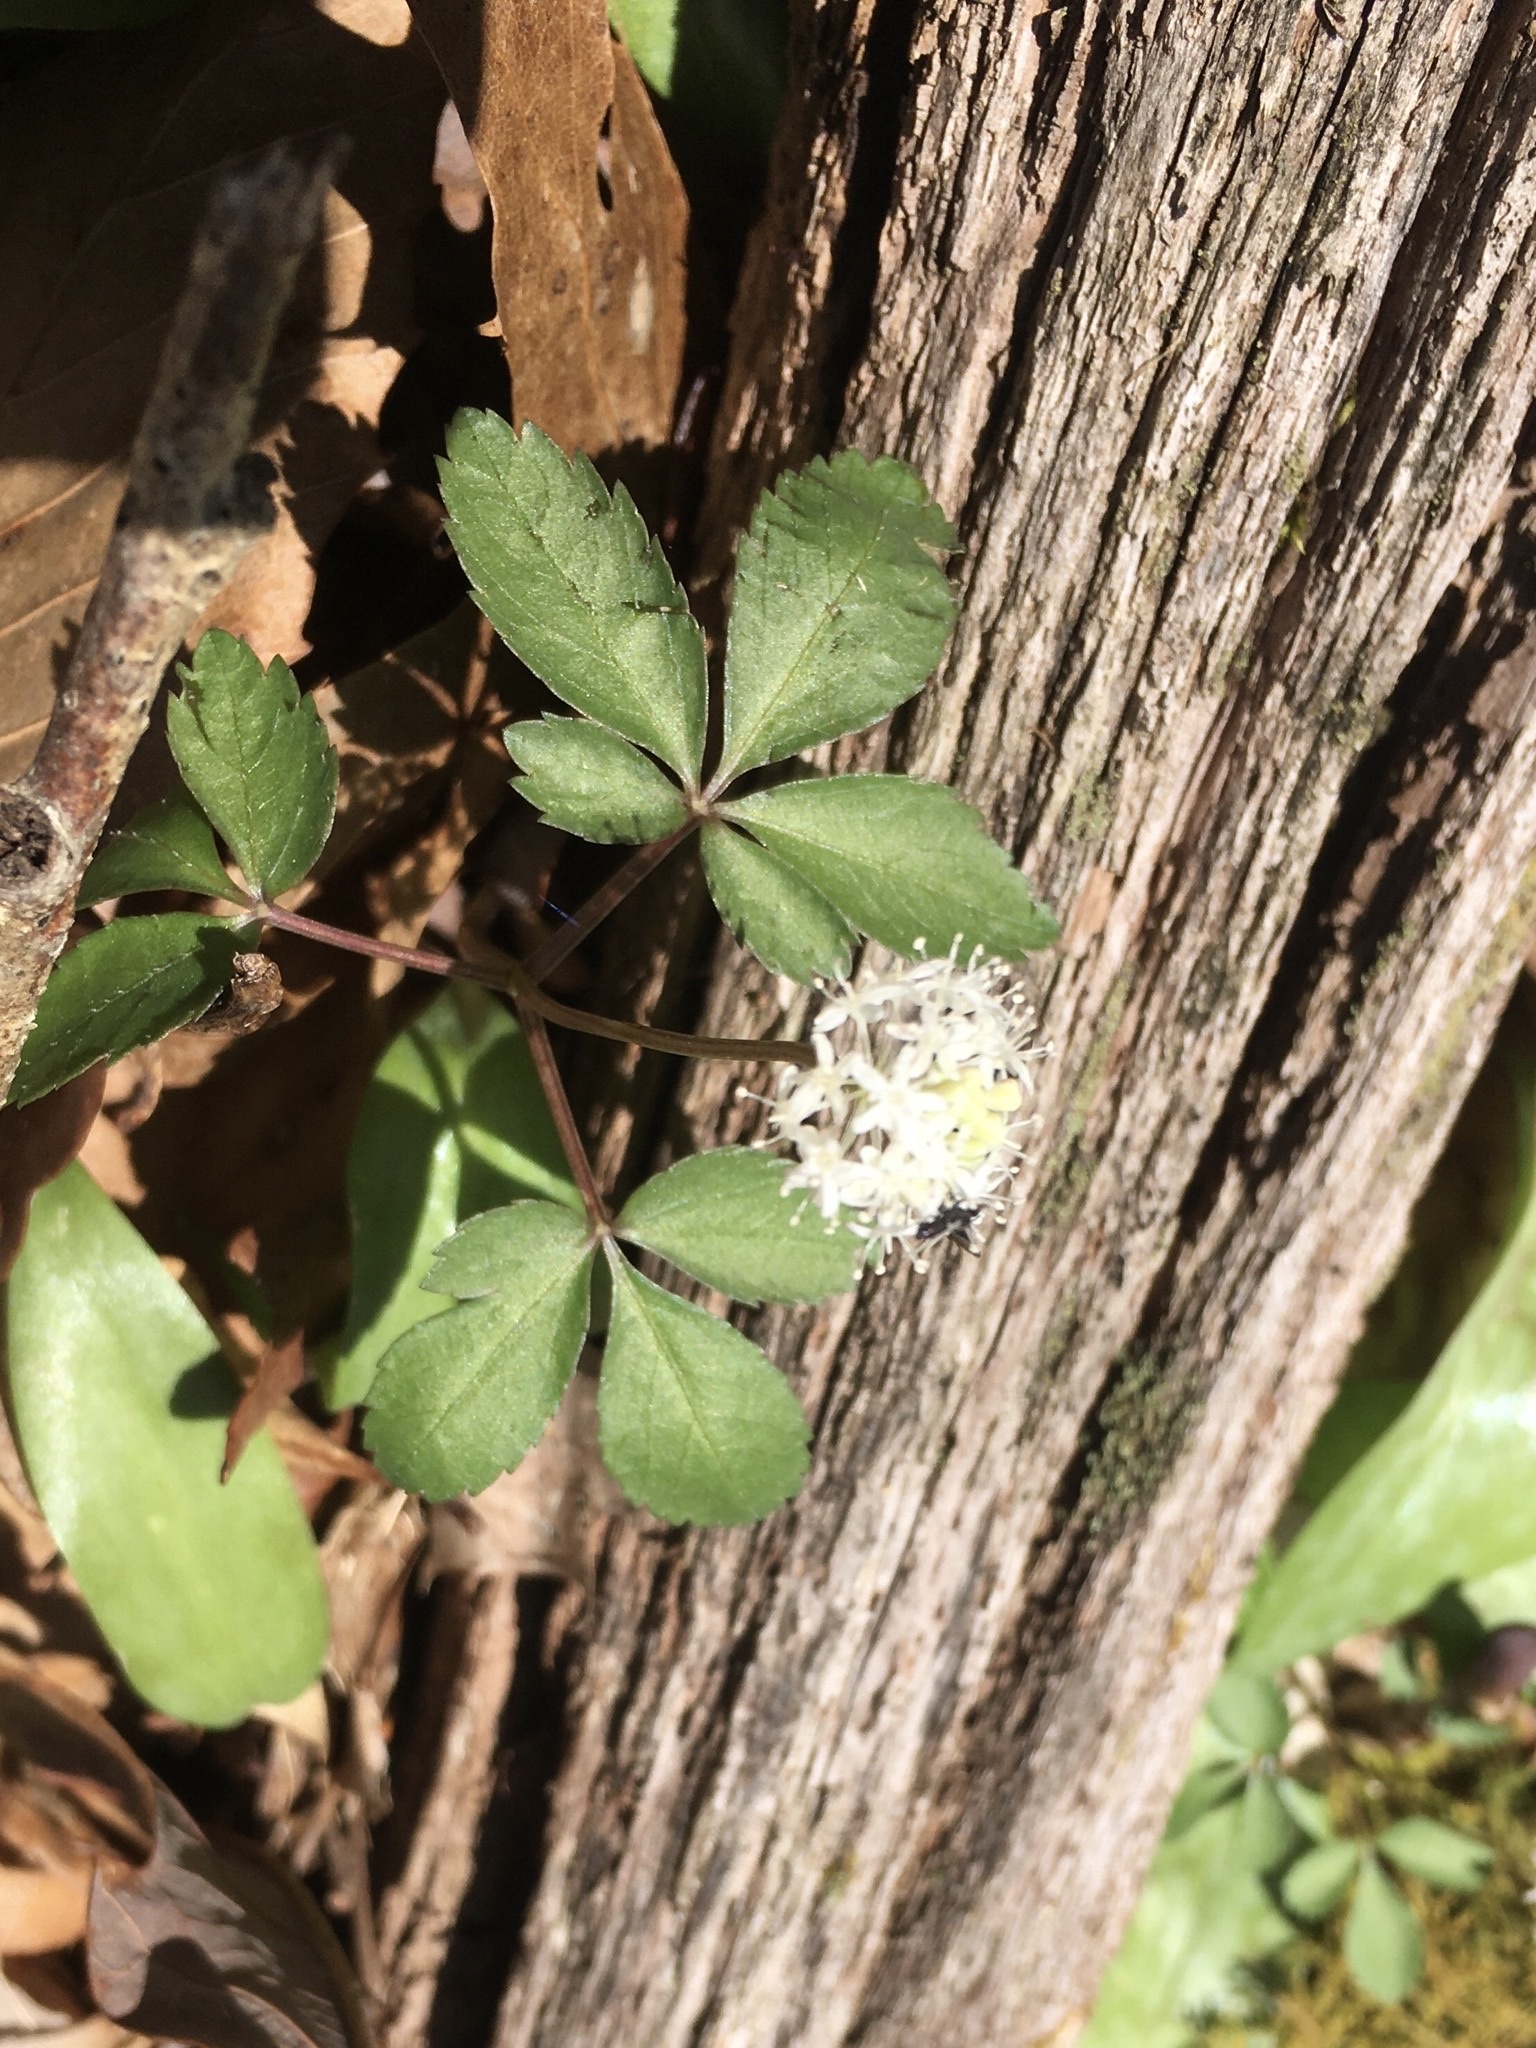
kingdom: Plantae
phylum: Tracheophyta
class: Magnoliopsida
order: Apiales
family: Araliaceae
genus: Panax
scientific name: Panax trifolius
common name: Dwarf ginseng
